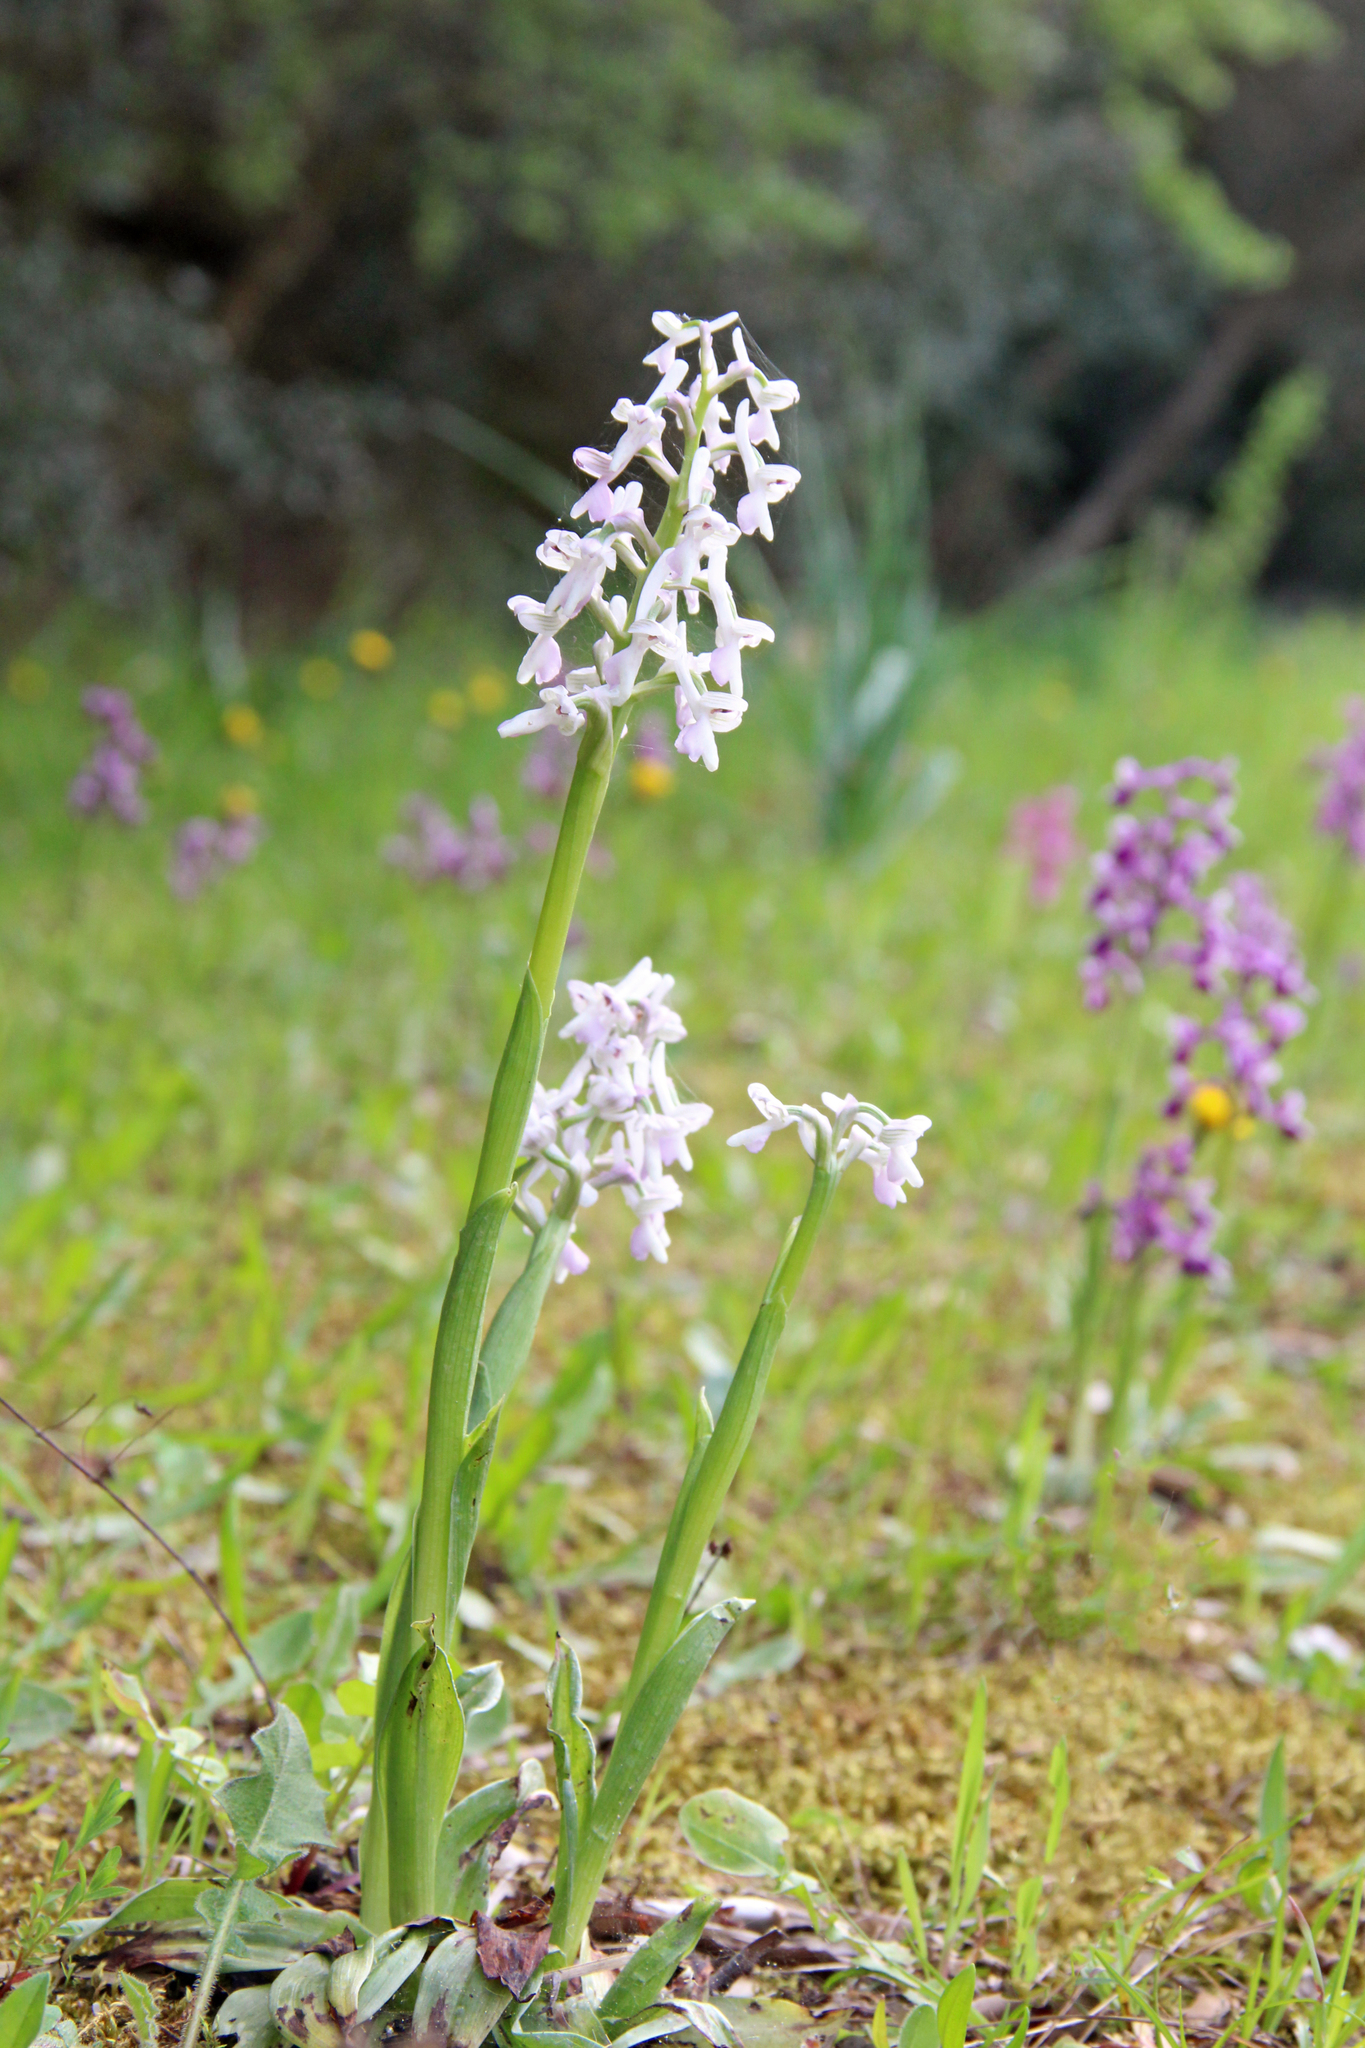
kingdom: Plantae
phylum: Tracheophyta
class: Liliopsida
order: Asparagales
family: Orchidaceae
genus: Anacamptis
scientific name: Anacamptis morio
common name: Green-winged orchid
